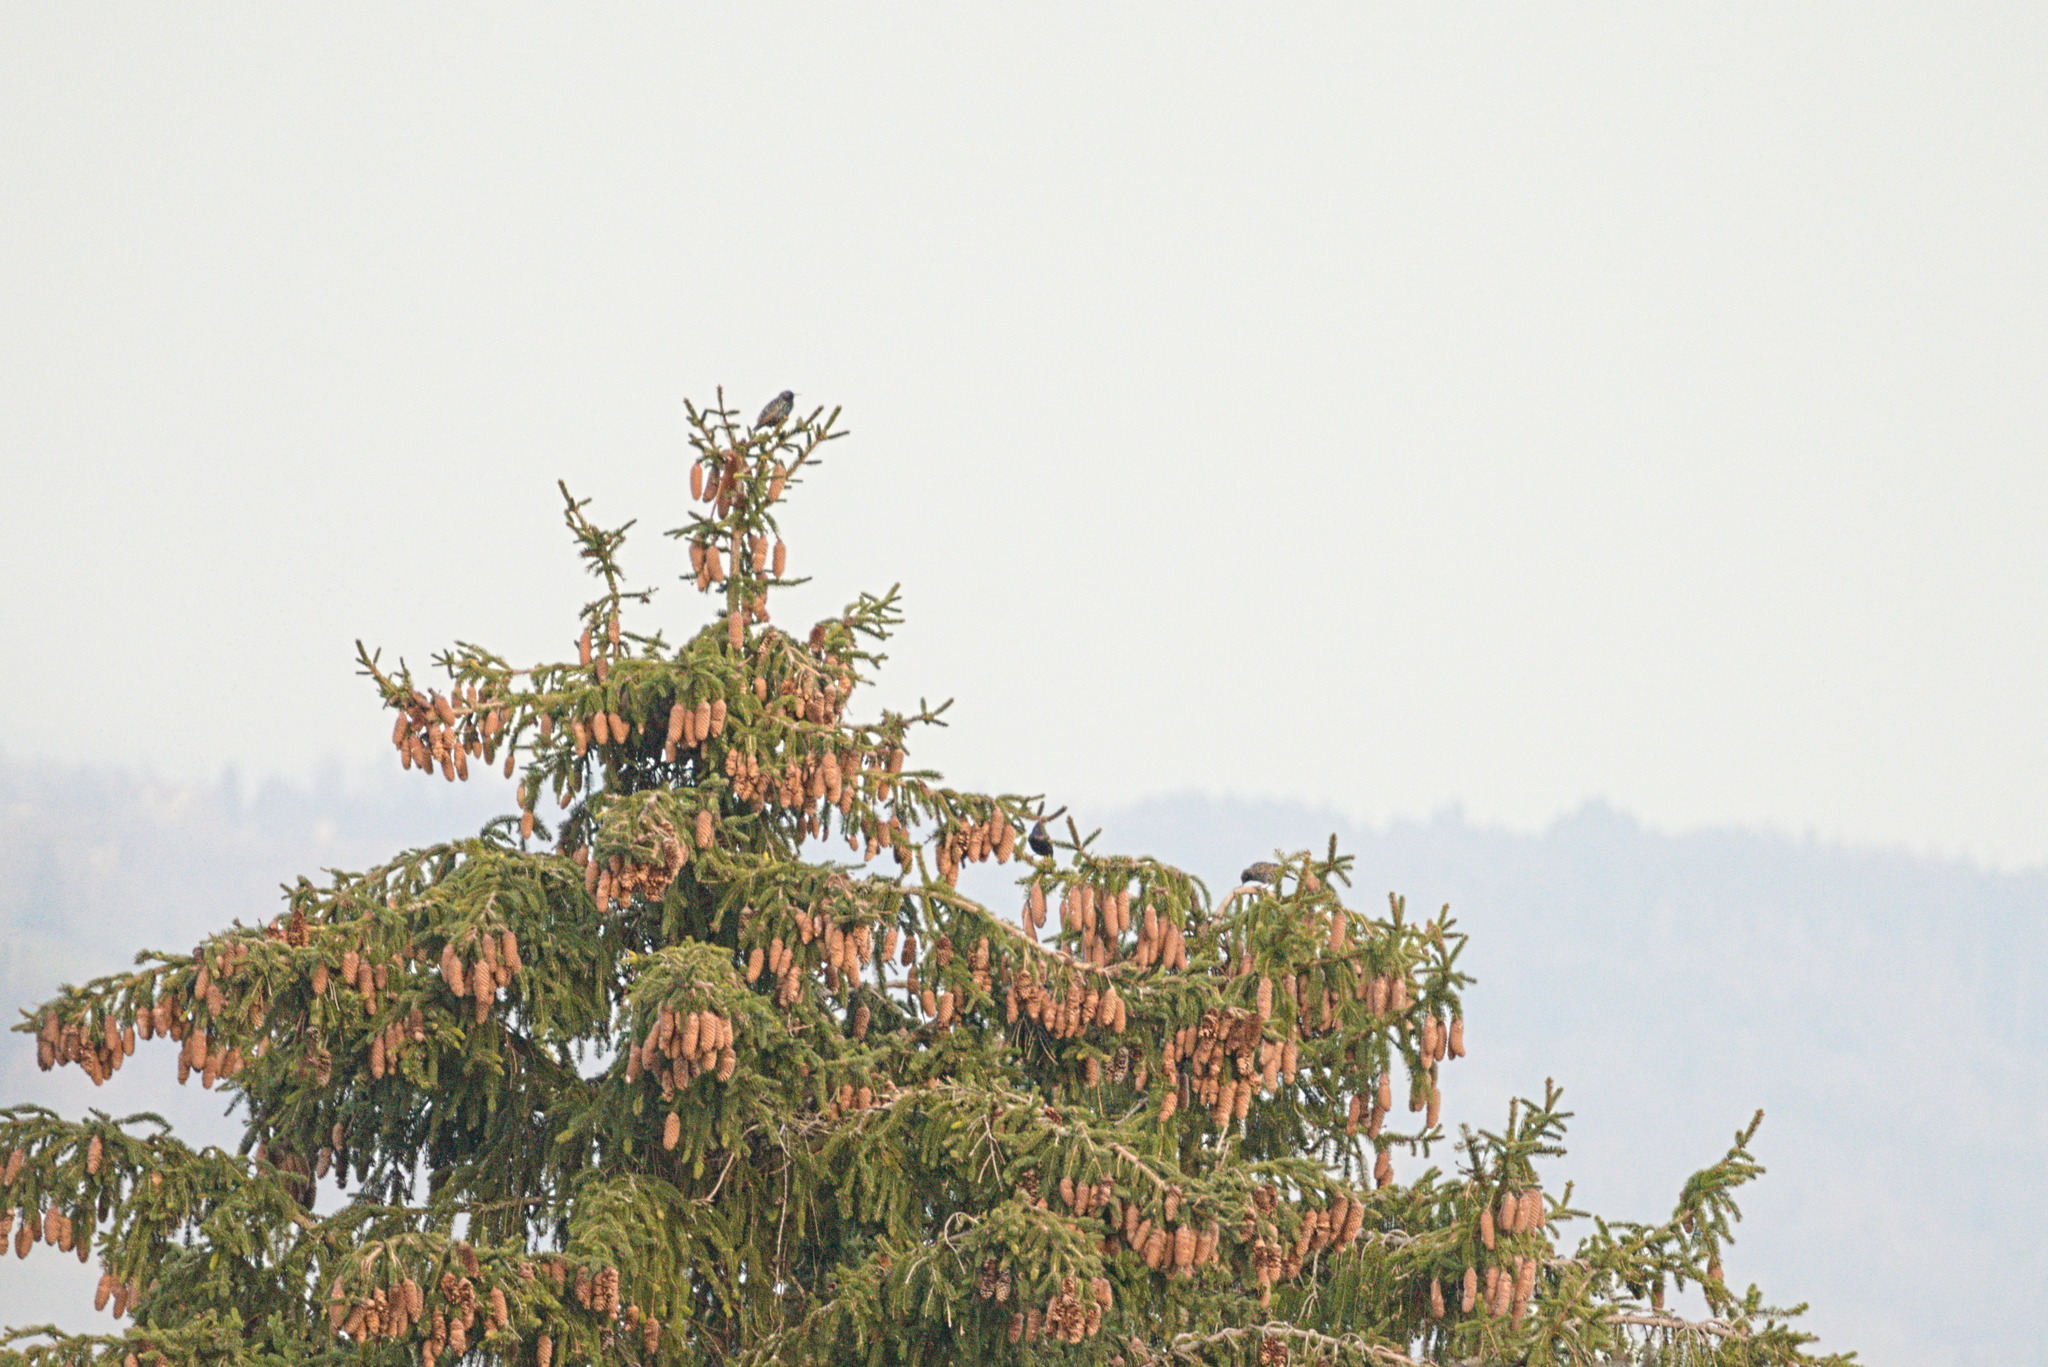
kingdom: Animalia
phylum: Chordata
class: Aves
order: Passeriformes
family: Sturnidae
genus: Sturnus
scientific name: Sturnus vulgaris
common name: Common starling
